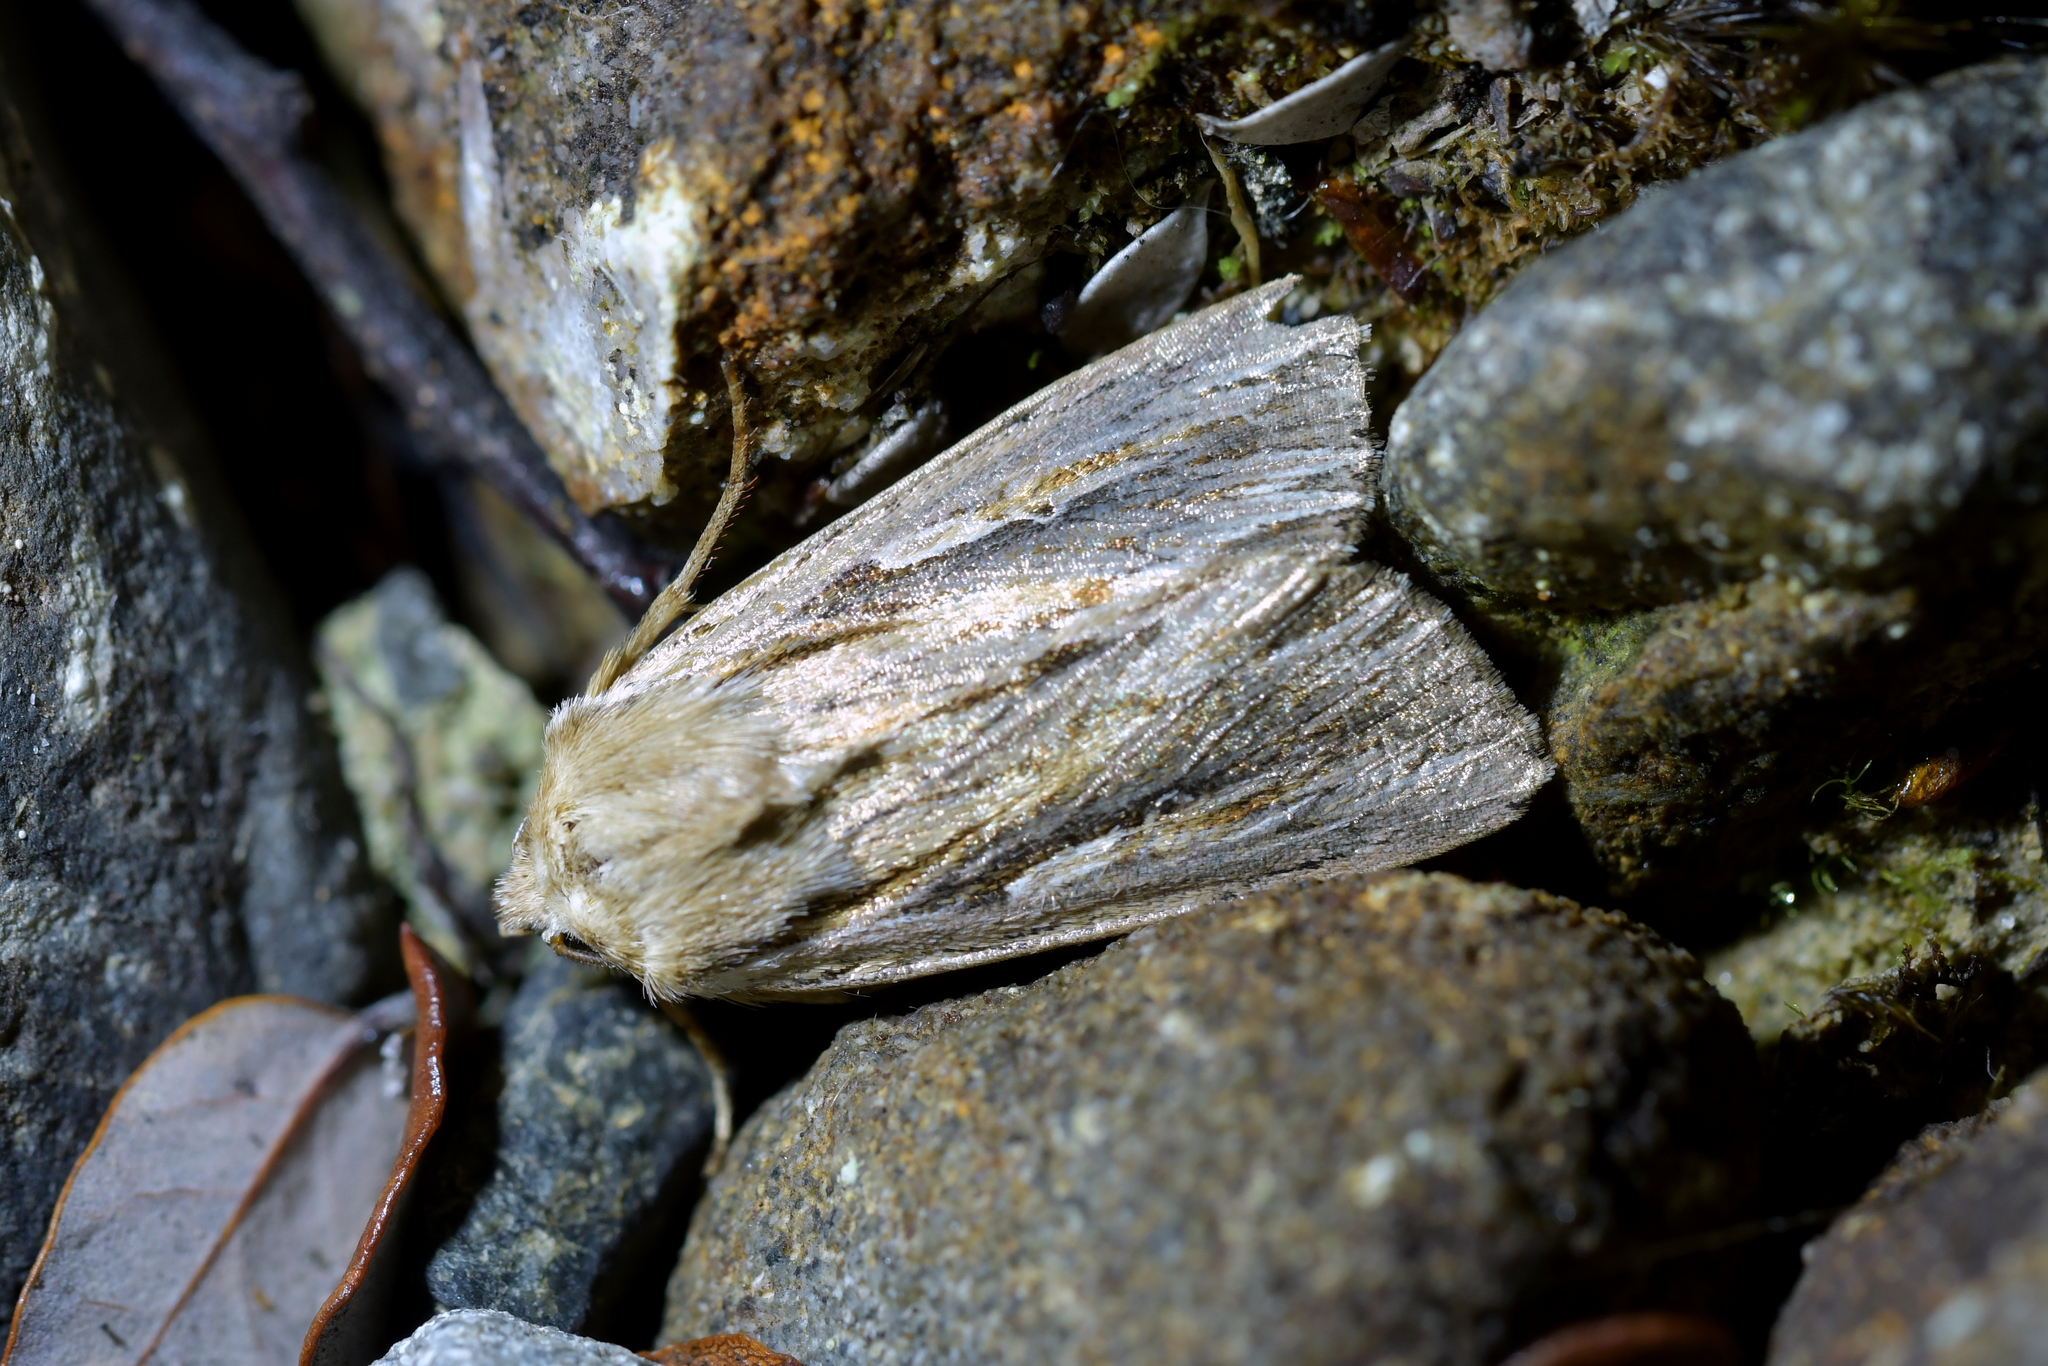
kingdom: Animalia
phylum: Arthropoda
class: Insecta
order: Lepidoptera
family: Noctuidae
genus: Persectania
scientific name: Persectania aversa
